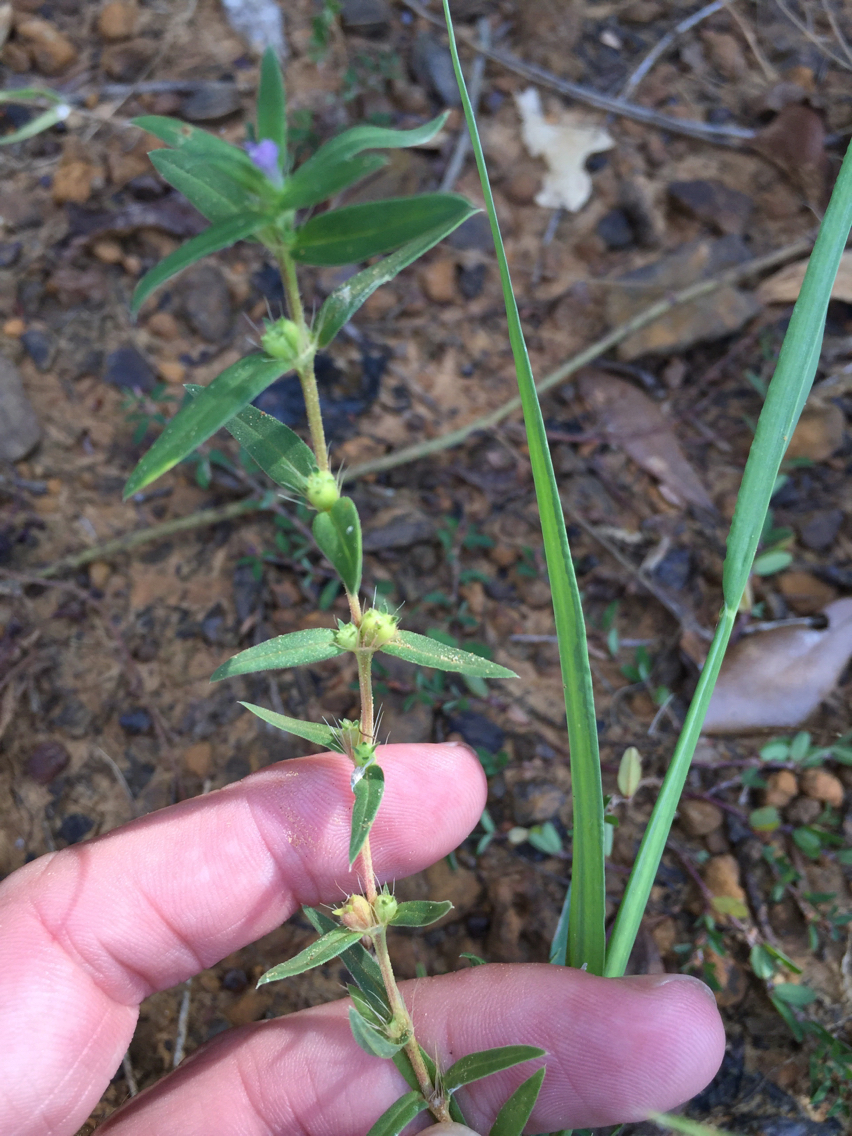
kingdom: Plantae
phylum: Tracheophyta
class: Magnoliopsida
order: Gentianales
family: Rubiaceae
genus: Hexasepalum
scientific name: Hexasepalum teres
